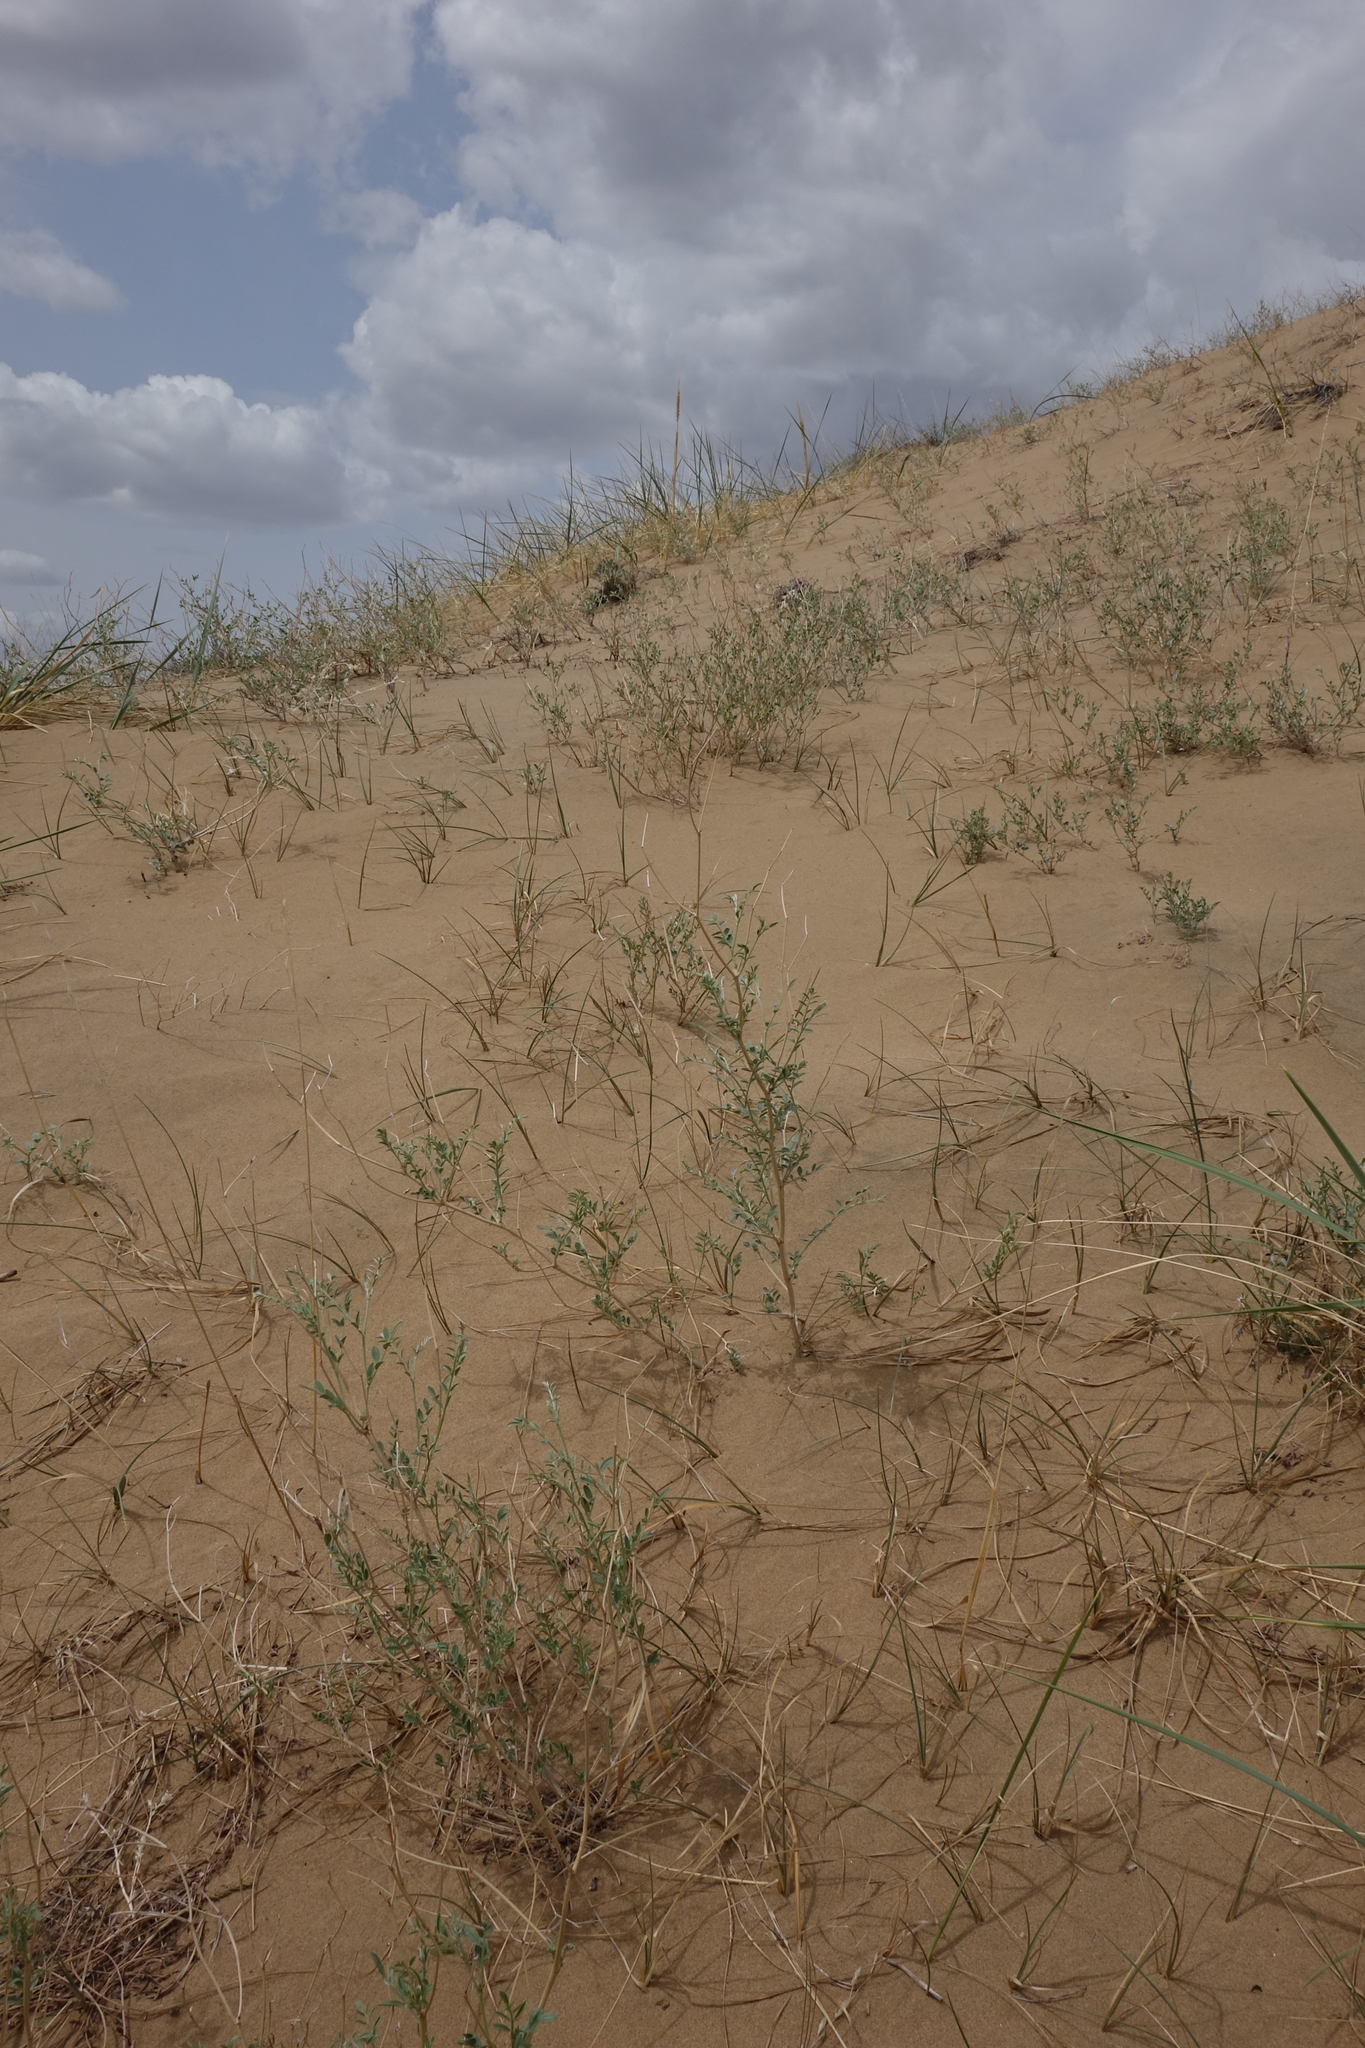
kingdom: Plantae
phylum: Tracheophyta
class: Magnoliopsida
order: Fabales
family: Fabaceae
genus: Corethrodendron
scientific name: Corethrodendron fruticosum
